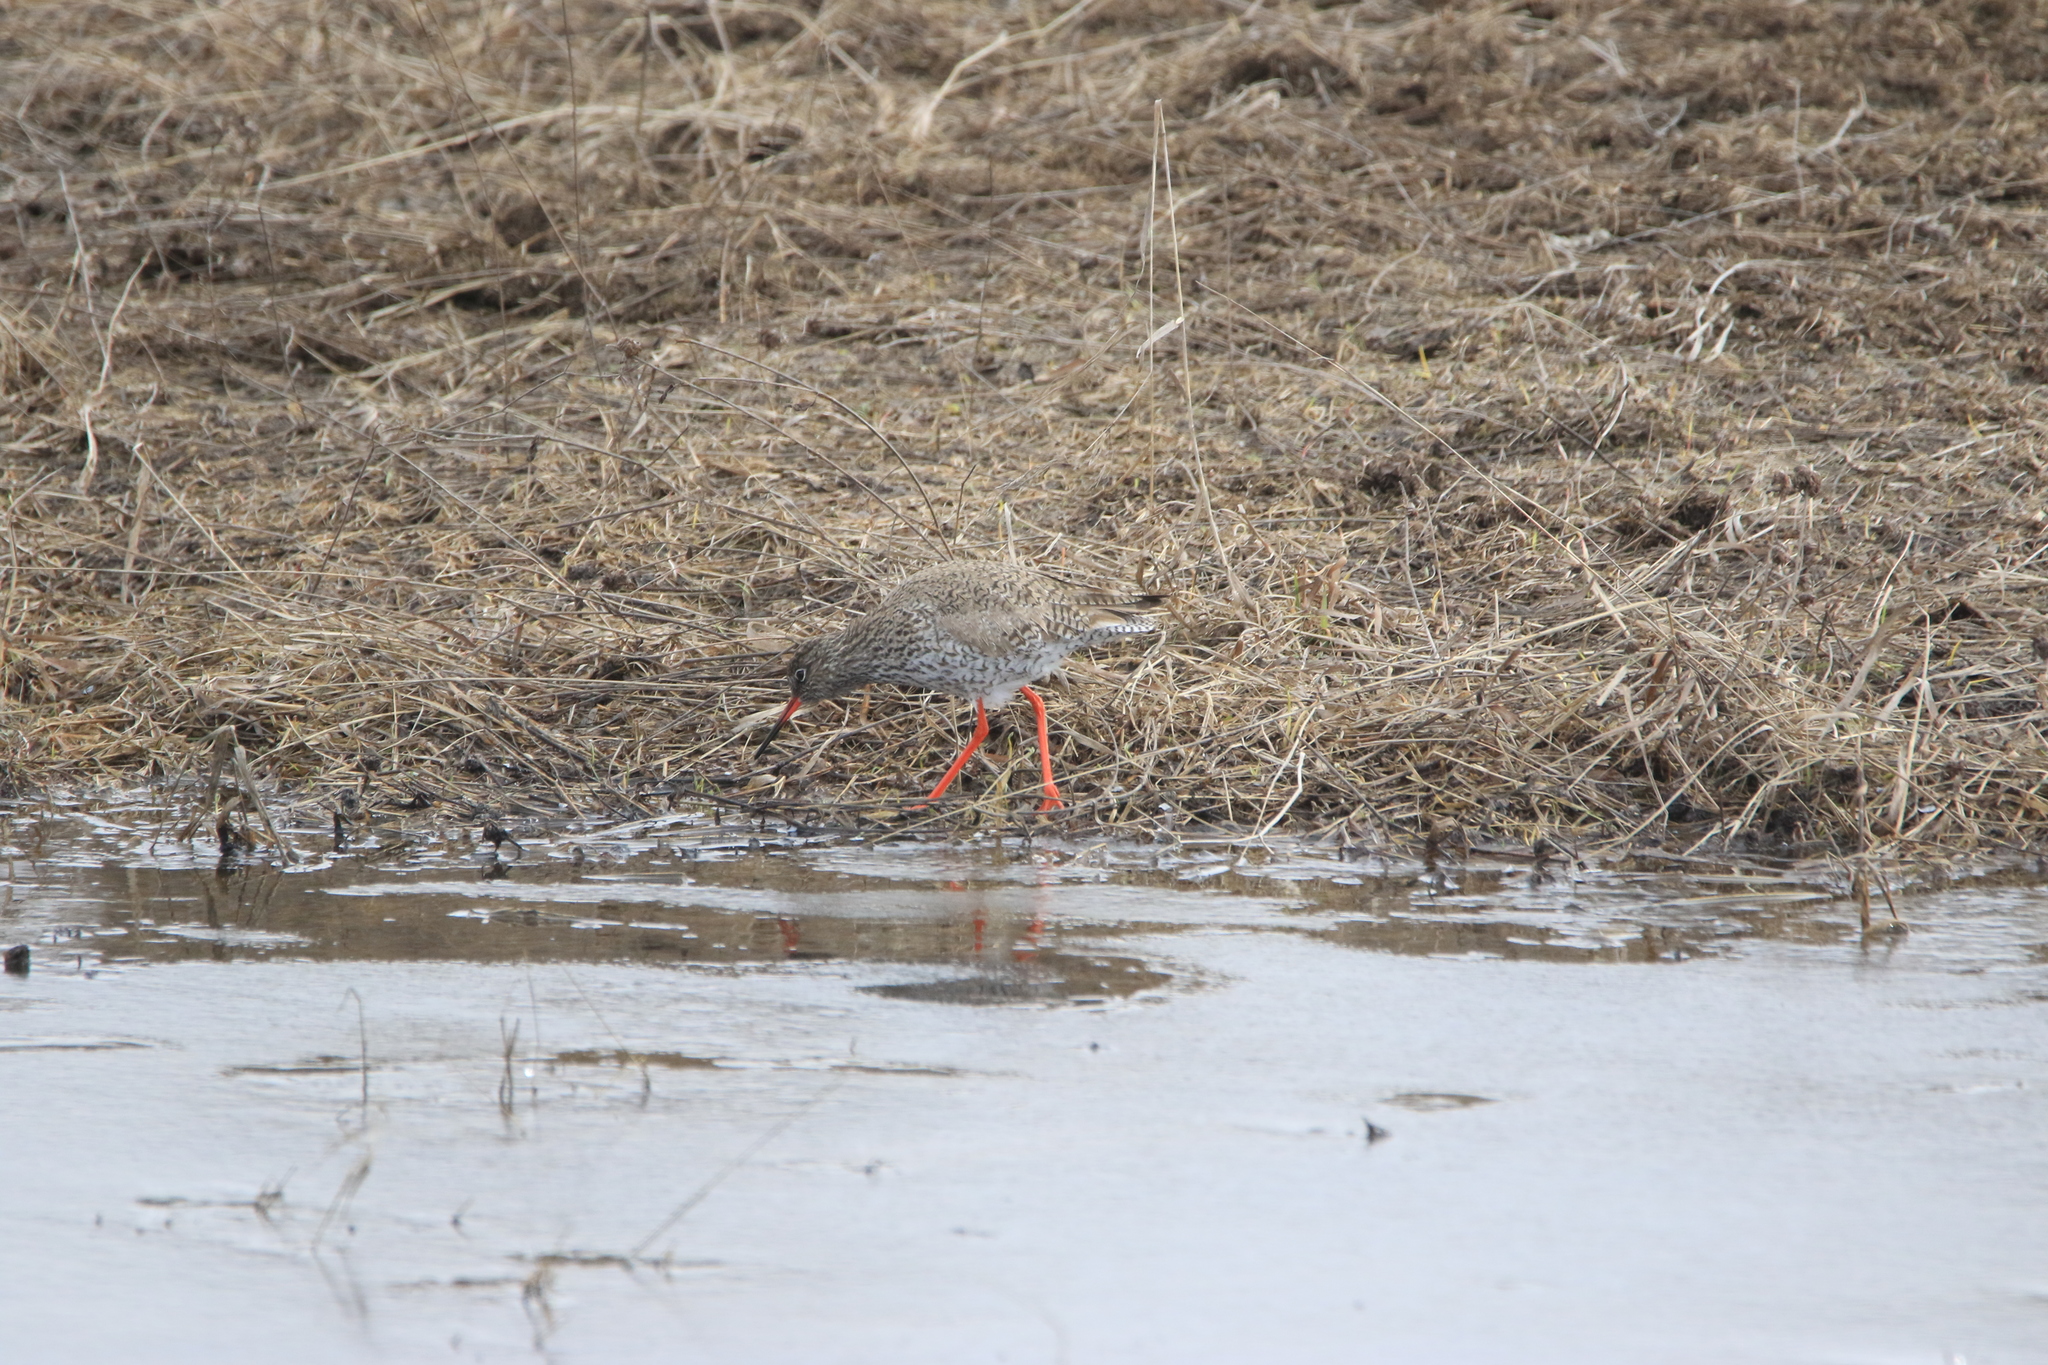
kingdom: Animalia
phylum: Chordata
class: Aves
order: Charadriiformes
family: Scolopacidae
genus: Tringa
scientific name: Tringa totanus
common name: Common redshank
